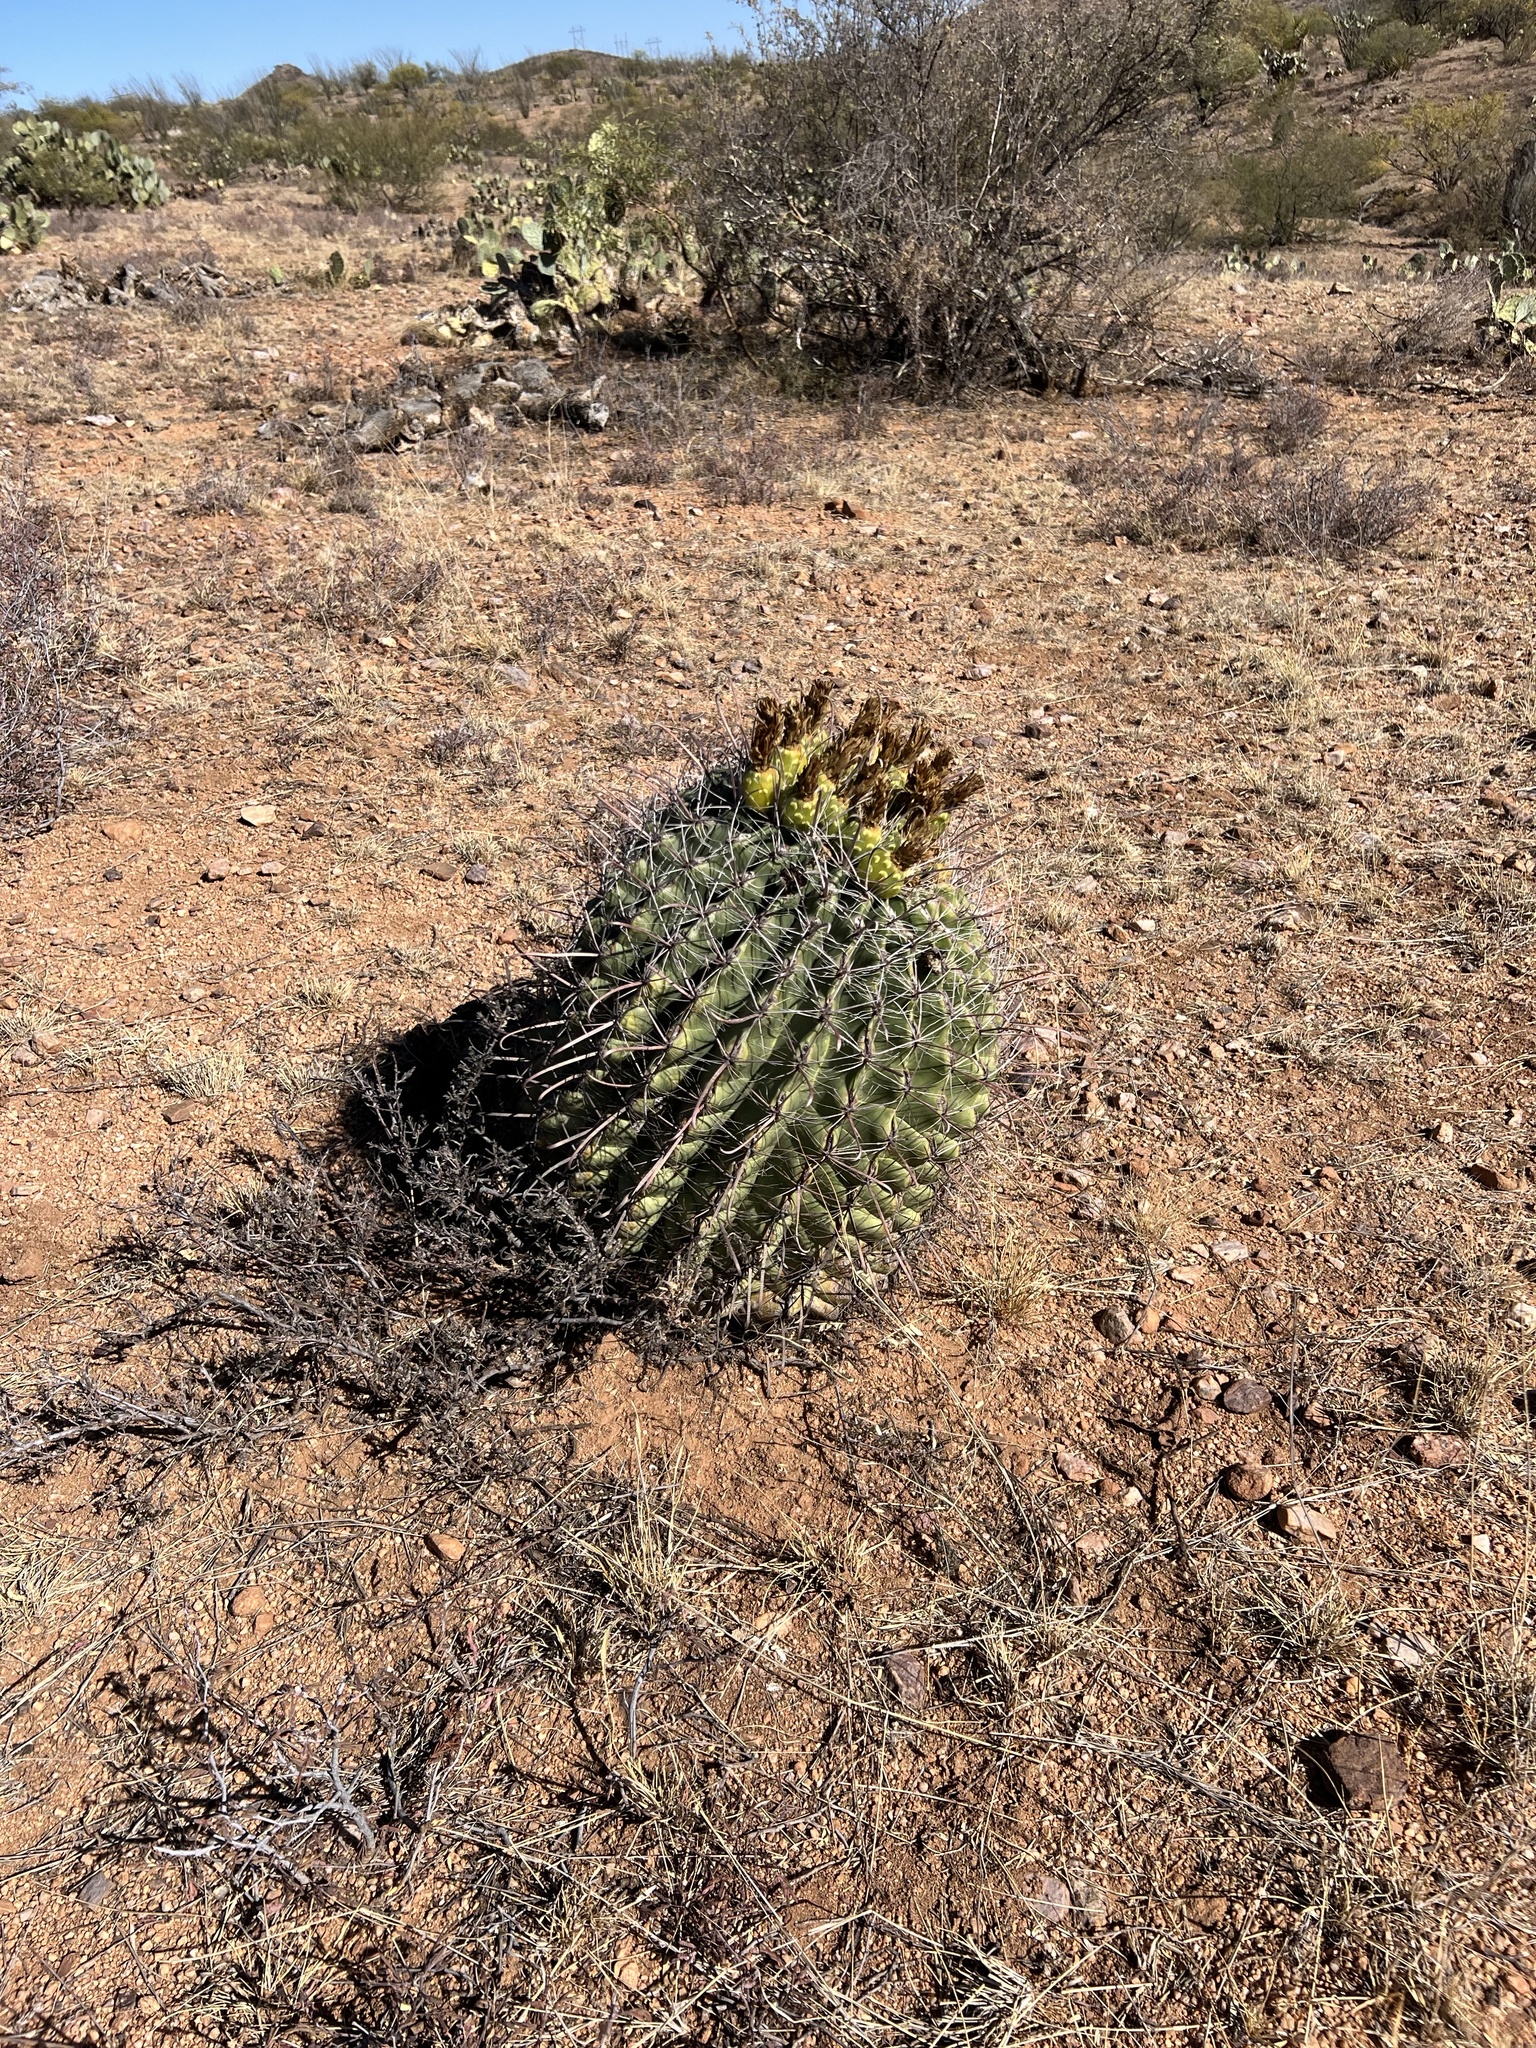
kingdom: Plantae
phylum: Tracheophyta
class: Magnoliopsida
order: Caryophyllales
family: Cactaceae
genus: Ferocactus
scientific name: Ferocactus wislizeni
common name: Candy barrel cactus
